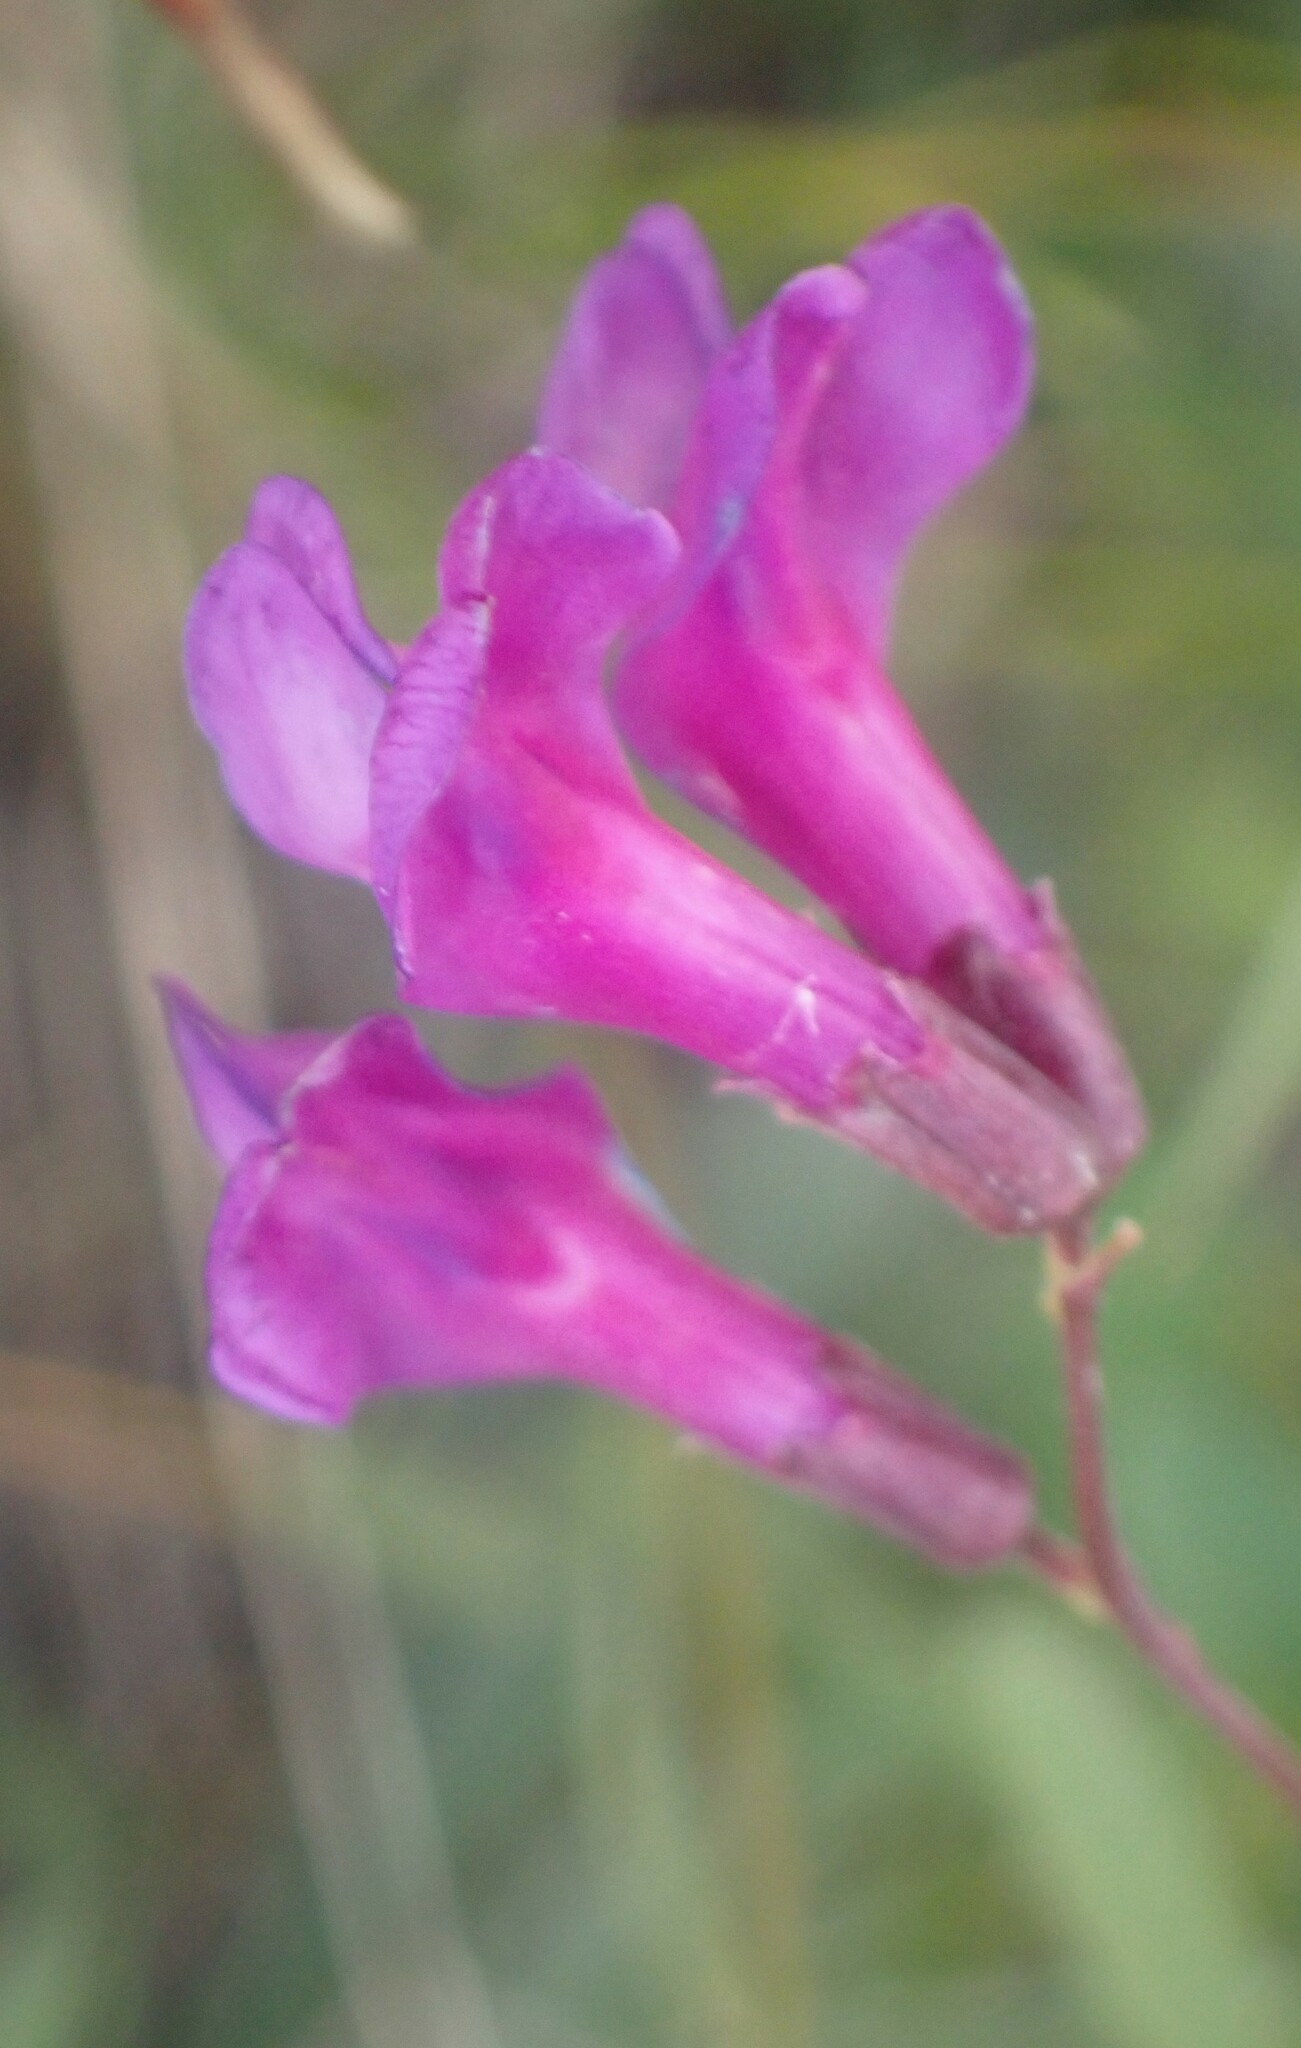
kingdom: Plantae
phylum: Tracheophyta
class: Magnoliopsida
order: Fabales
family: Fabaceae
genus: Vicia
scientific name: Vicia americana
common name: American vetch
